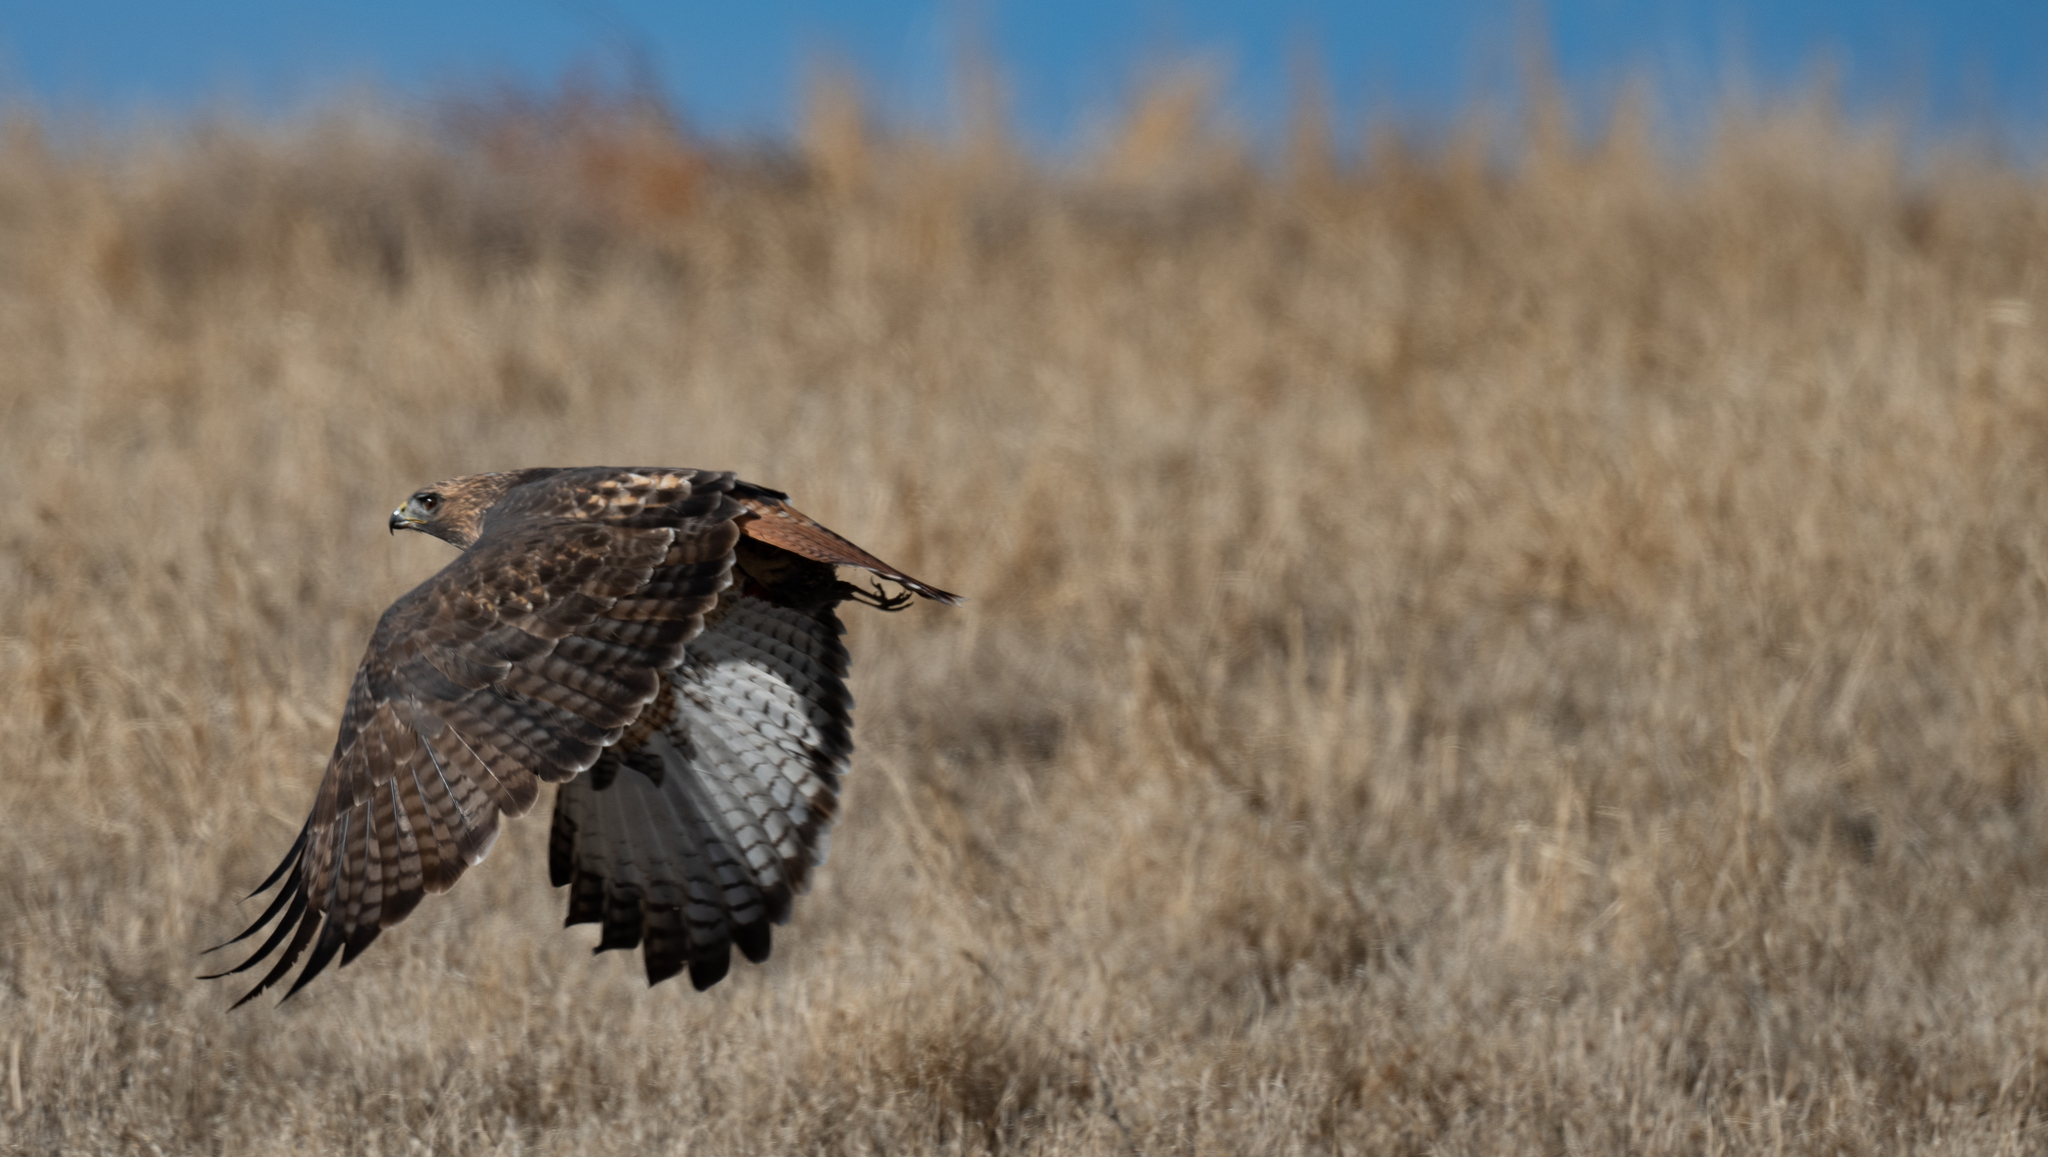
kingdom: Animalia
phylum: Chordata
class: Aves
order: Accipitriformes
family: Accipitridae
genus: Buteo
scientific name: Buteo jamaicensis
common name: Red-tailed hawk
